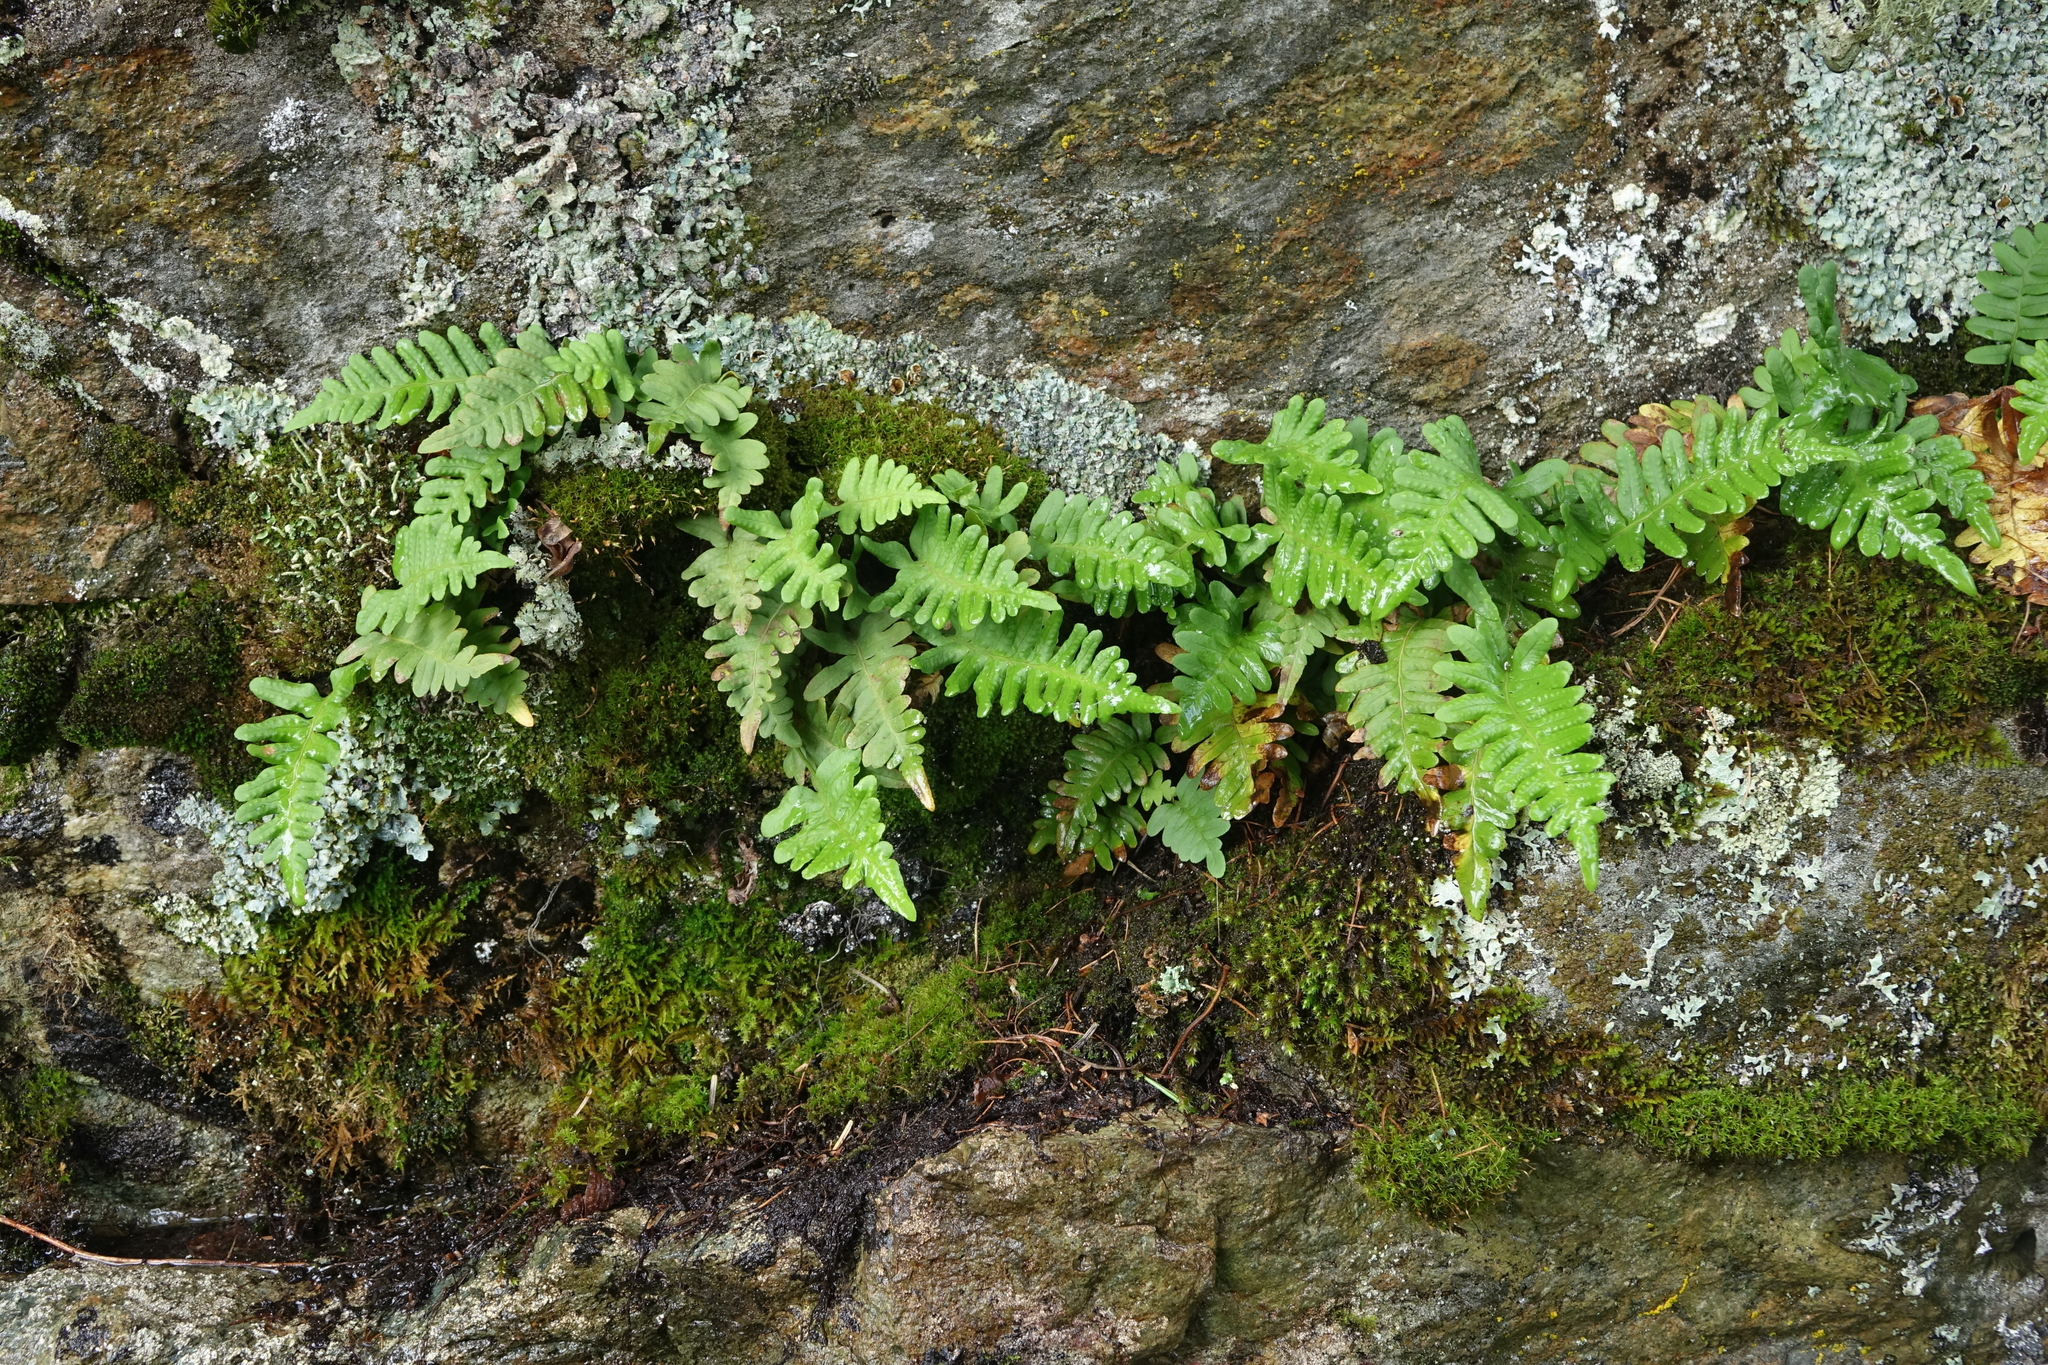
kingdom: Plantae
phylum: Tracheophyta
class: Polypodiopsida
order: Polypodiales
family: Polypodiaceae
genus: Polypodium
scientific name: Polypodium vulgare
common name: Common polypody
